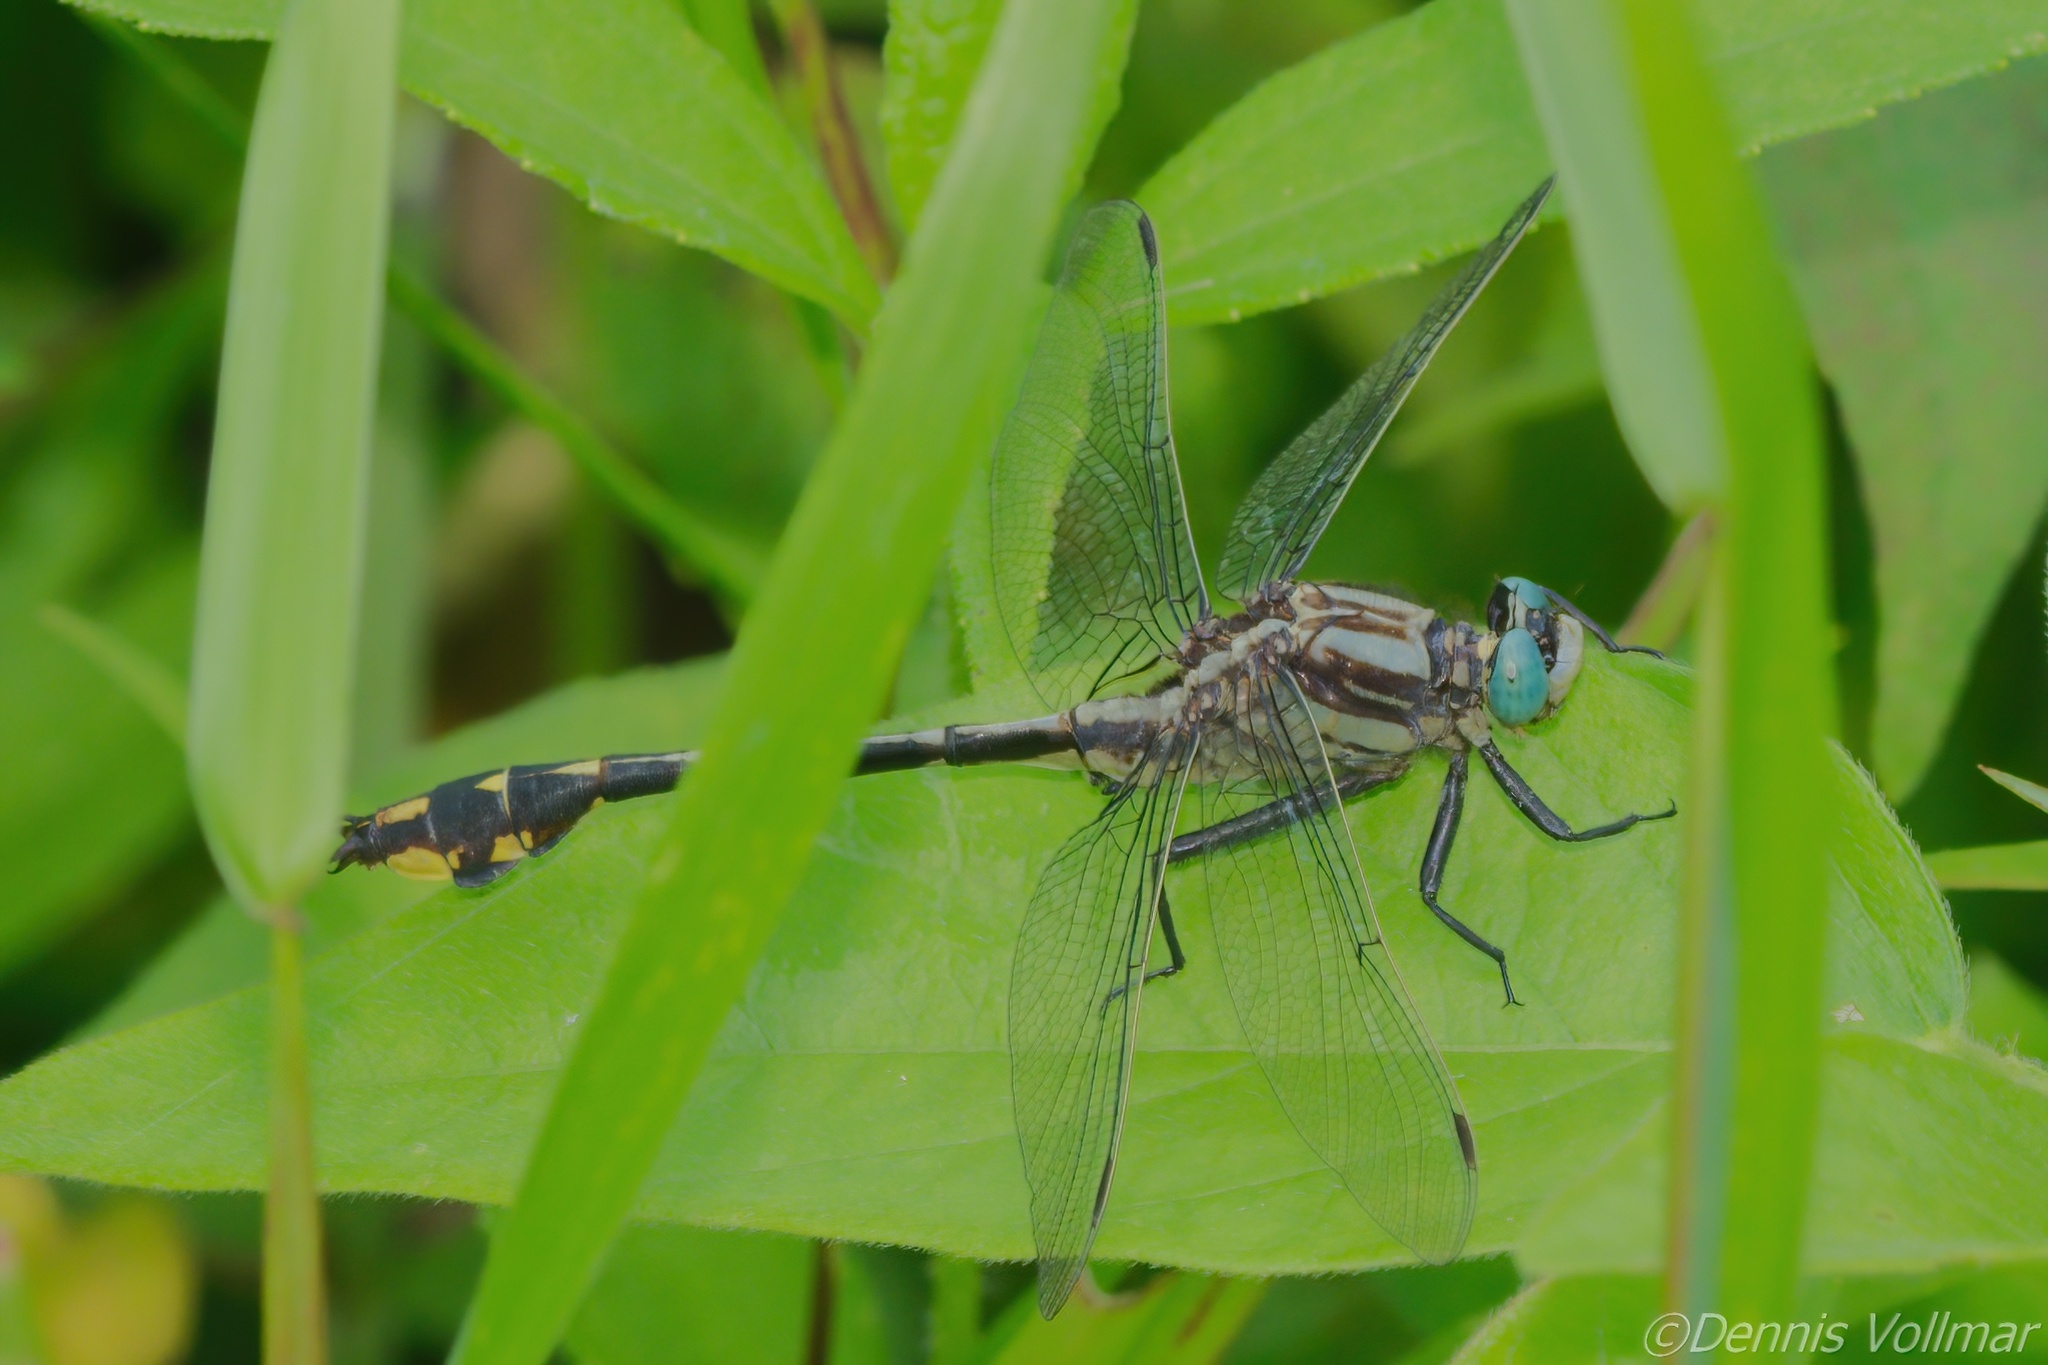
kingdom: Animalia
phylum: Arthropoda
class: Insecta
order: Odonata
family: Gomphidae
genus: Gomphurus
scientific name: Gomphurus crassus
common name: Handsome clubtail
